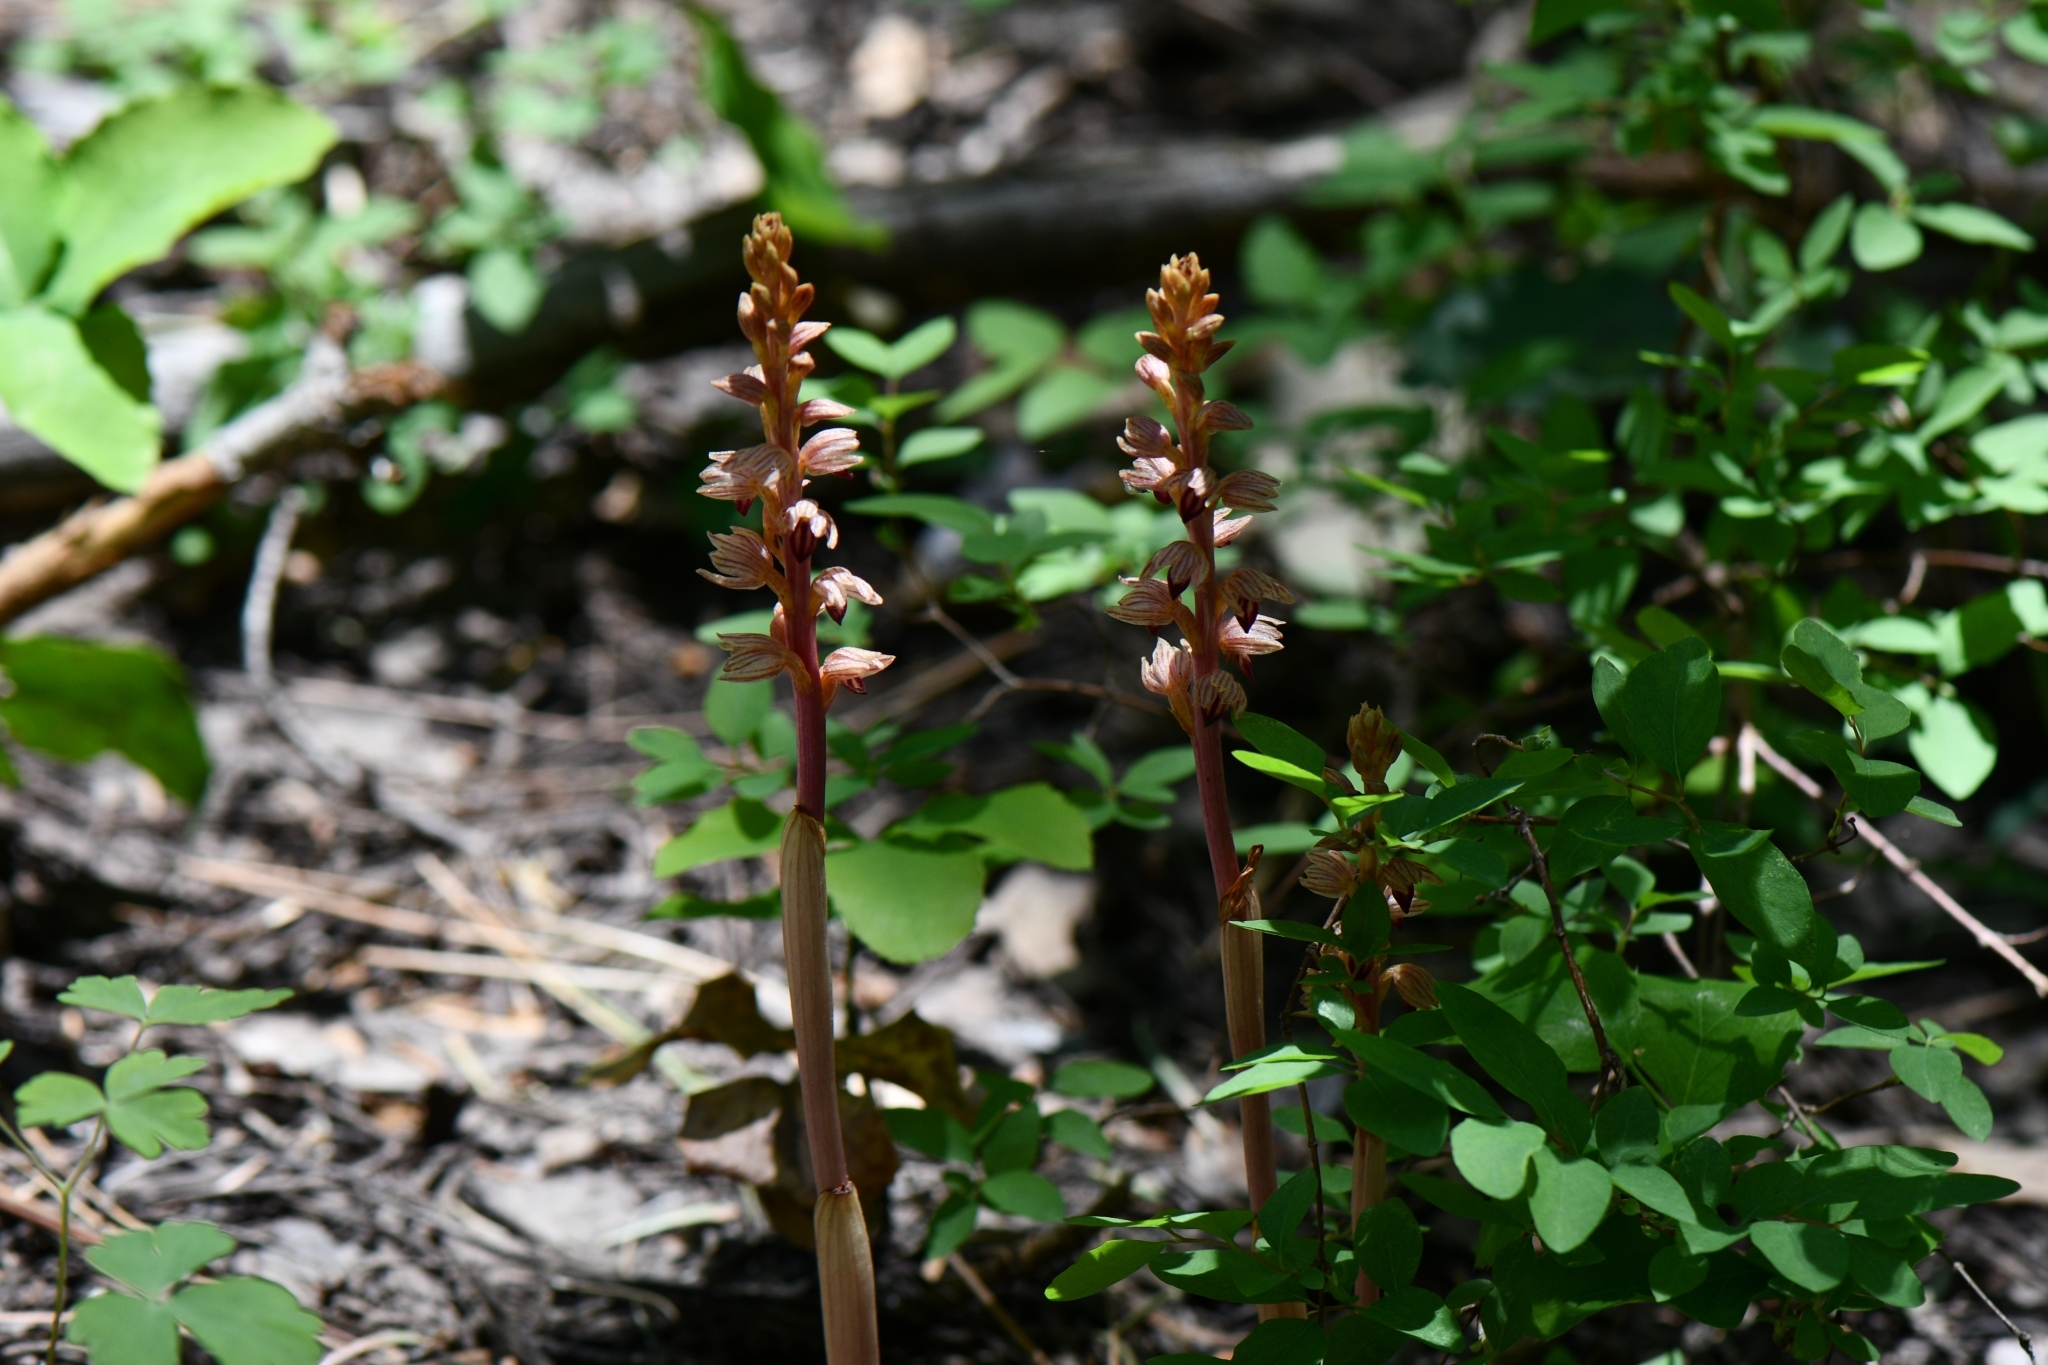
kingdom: Plantae
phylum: Tracheophyta
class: Liliopsida
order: Asparagales
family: Orchidaceae
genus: Corallorhiza
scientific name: Corallorhiza striata
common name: Hooded coralroot
